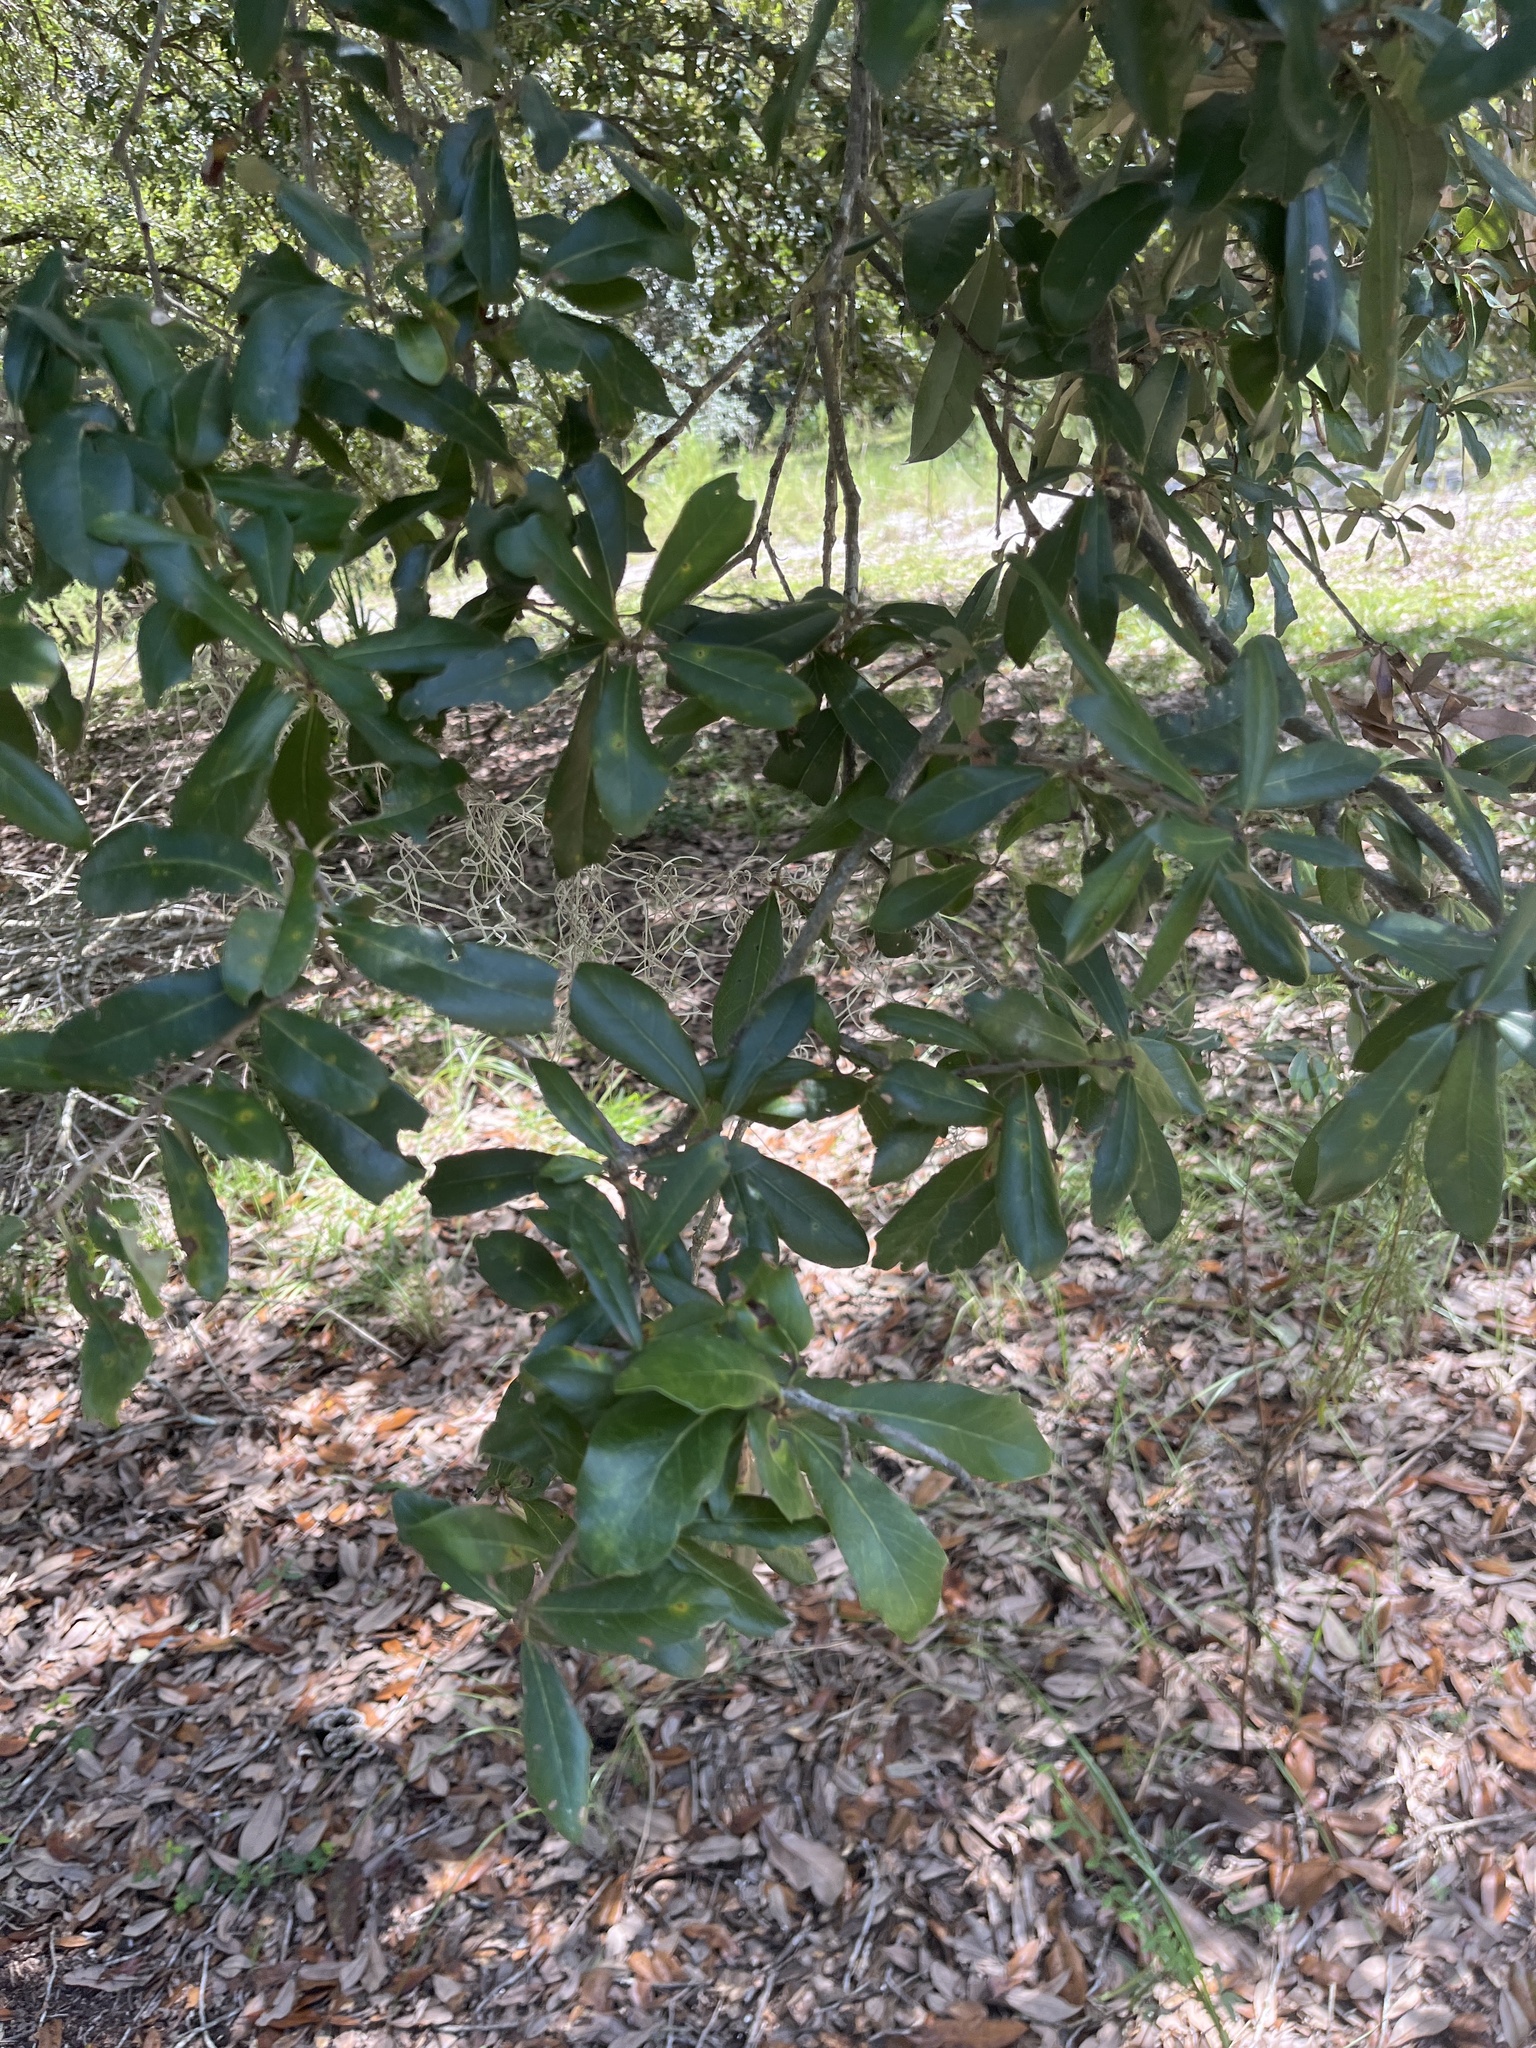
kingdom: Plantae
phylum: Tracheophyta
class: Magnoliopsida
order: Fagales
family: Fagaceae
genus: Quercus
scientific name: Quercus virginiana
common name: Southern live oak
